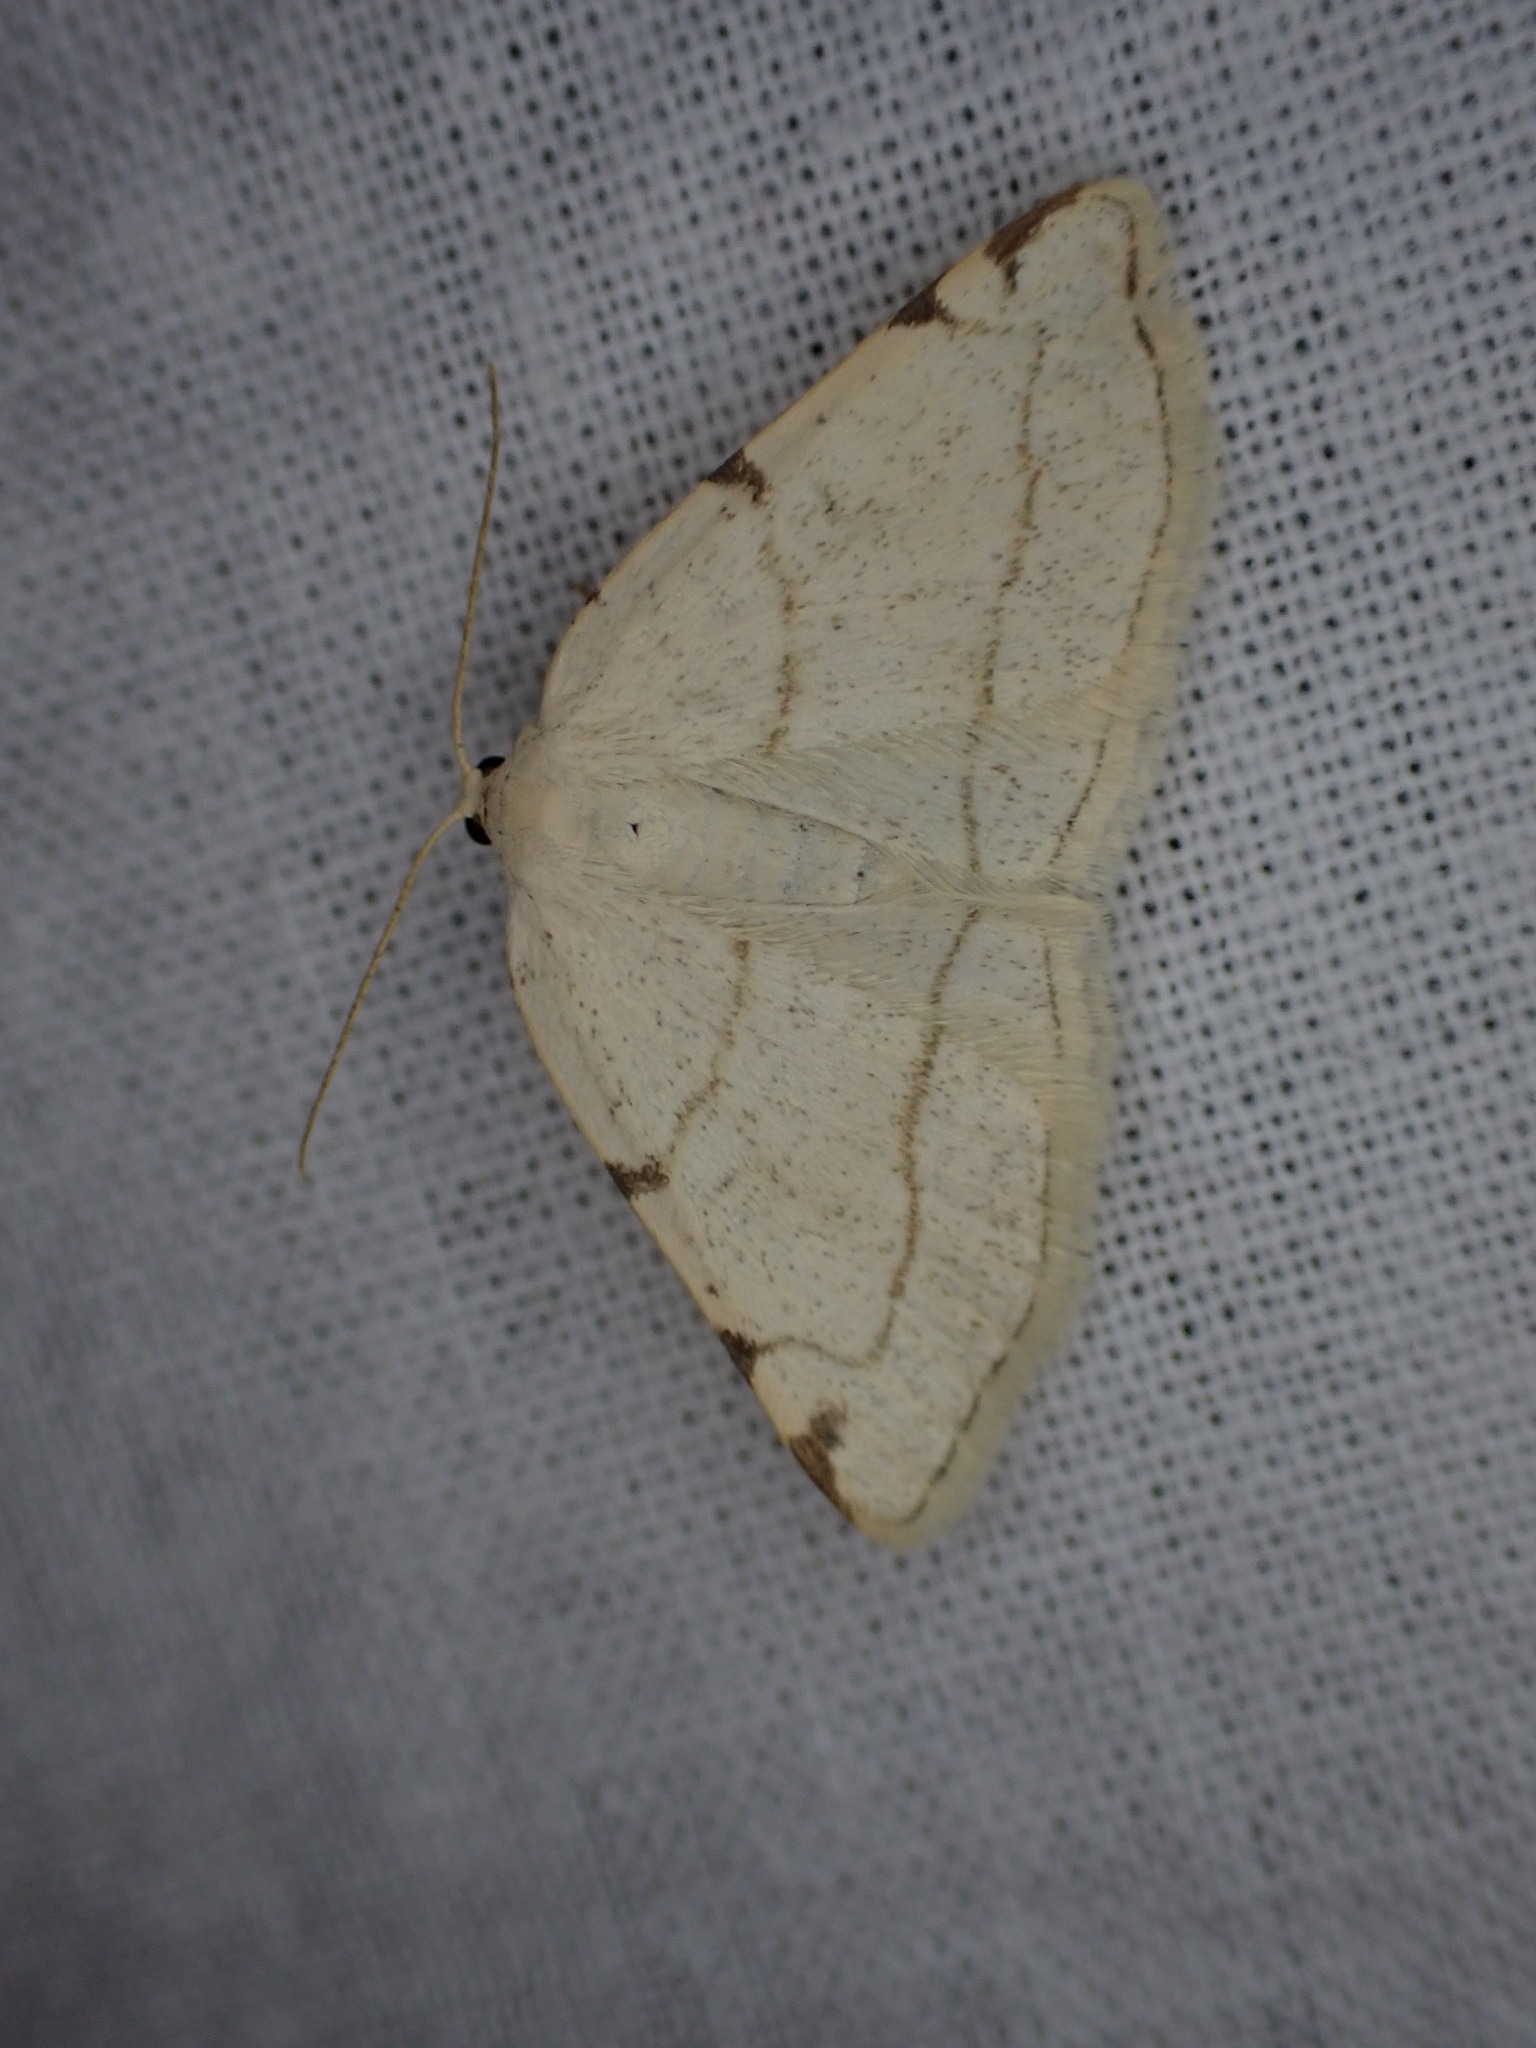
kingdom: Animalia
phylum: Arthropoda
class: Insecta
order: Lepidoptera
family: Geometridae
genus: Stegania
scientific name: Stegania trimaculata
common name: Dorset cream wave
